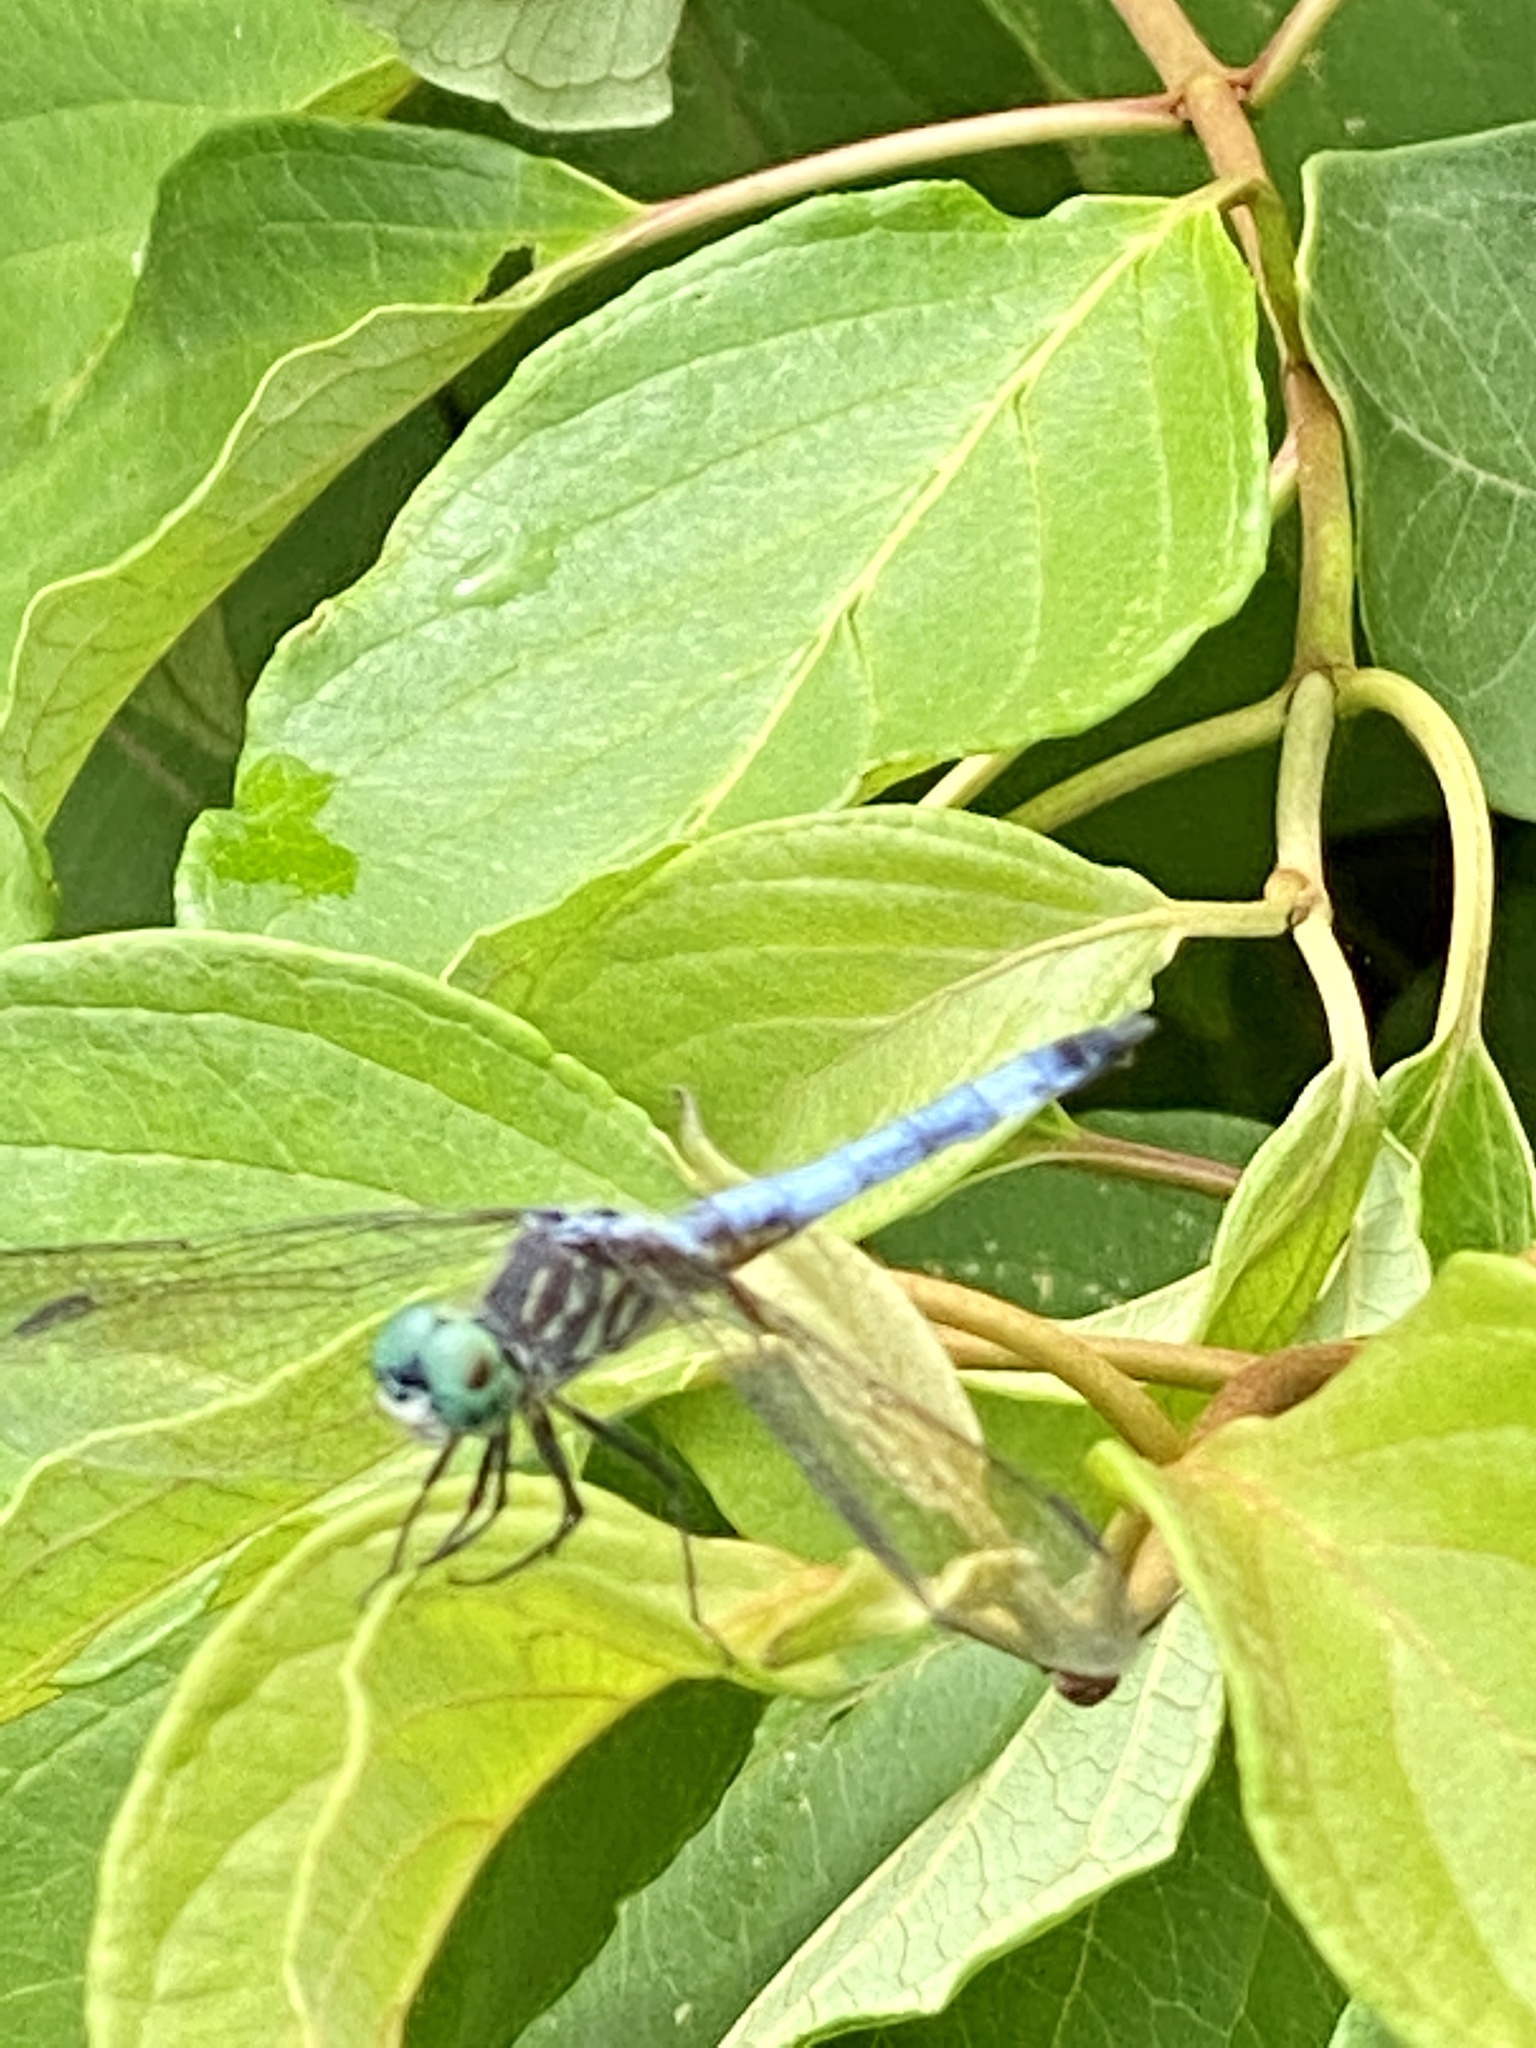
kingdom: Animalia
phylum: Arthropoda
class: Insecta
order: Odonata
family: Libellulidae
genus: Pachydiplax
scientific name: Pachydiplax longipennis
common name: Blue dasher
